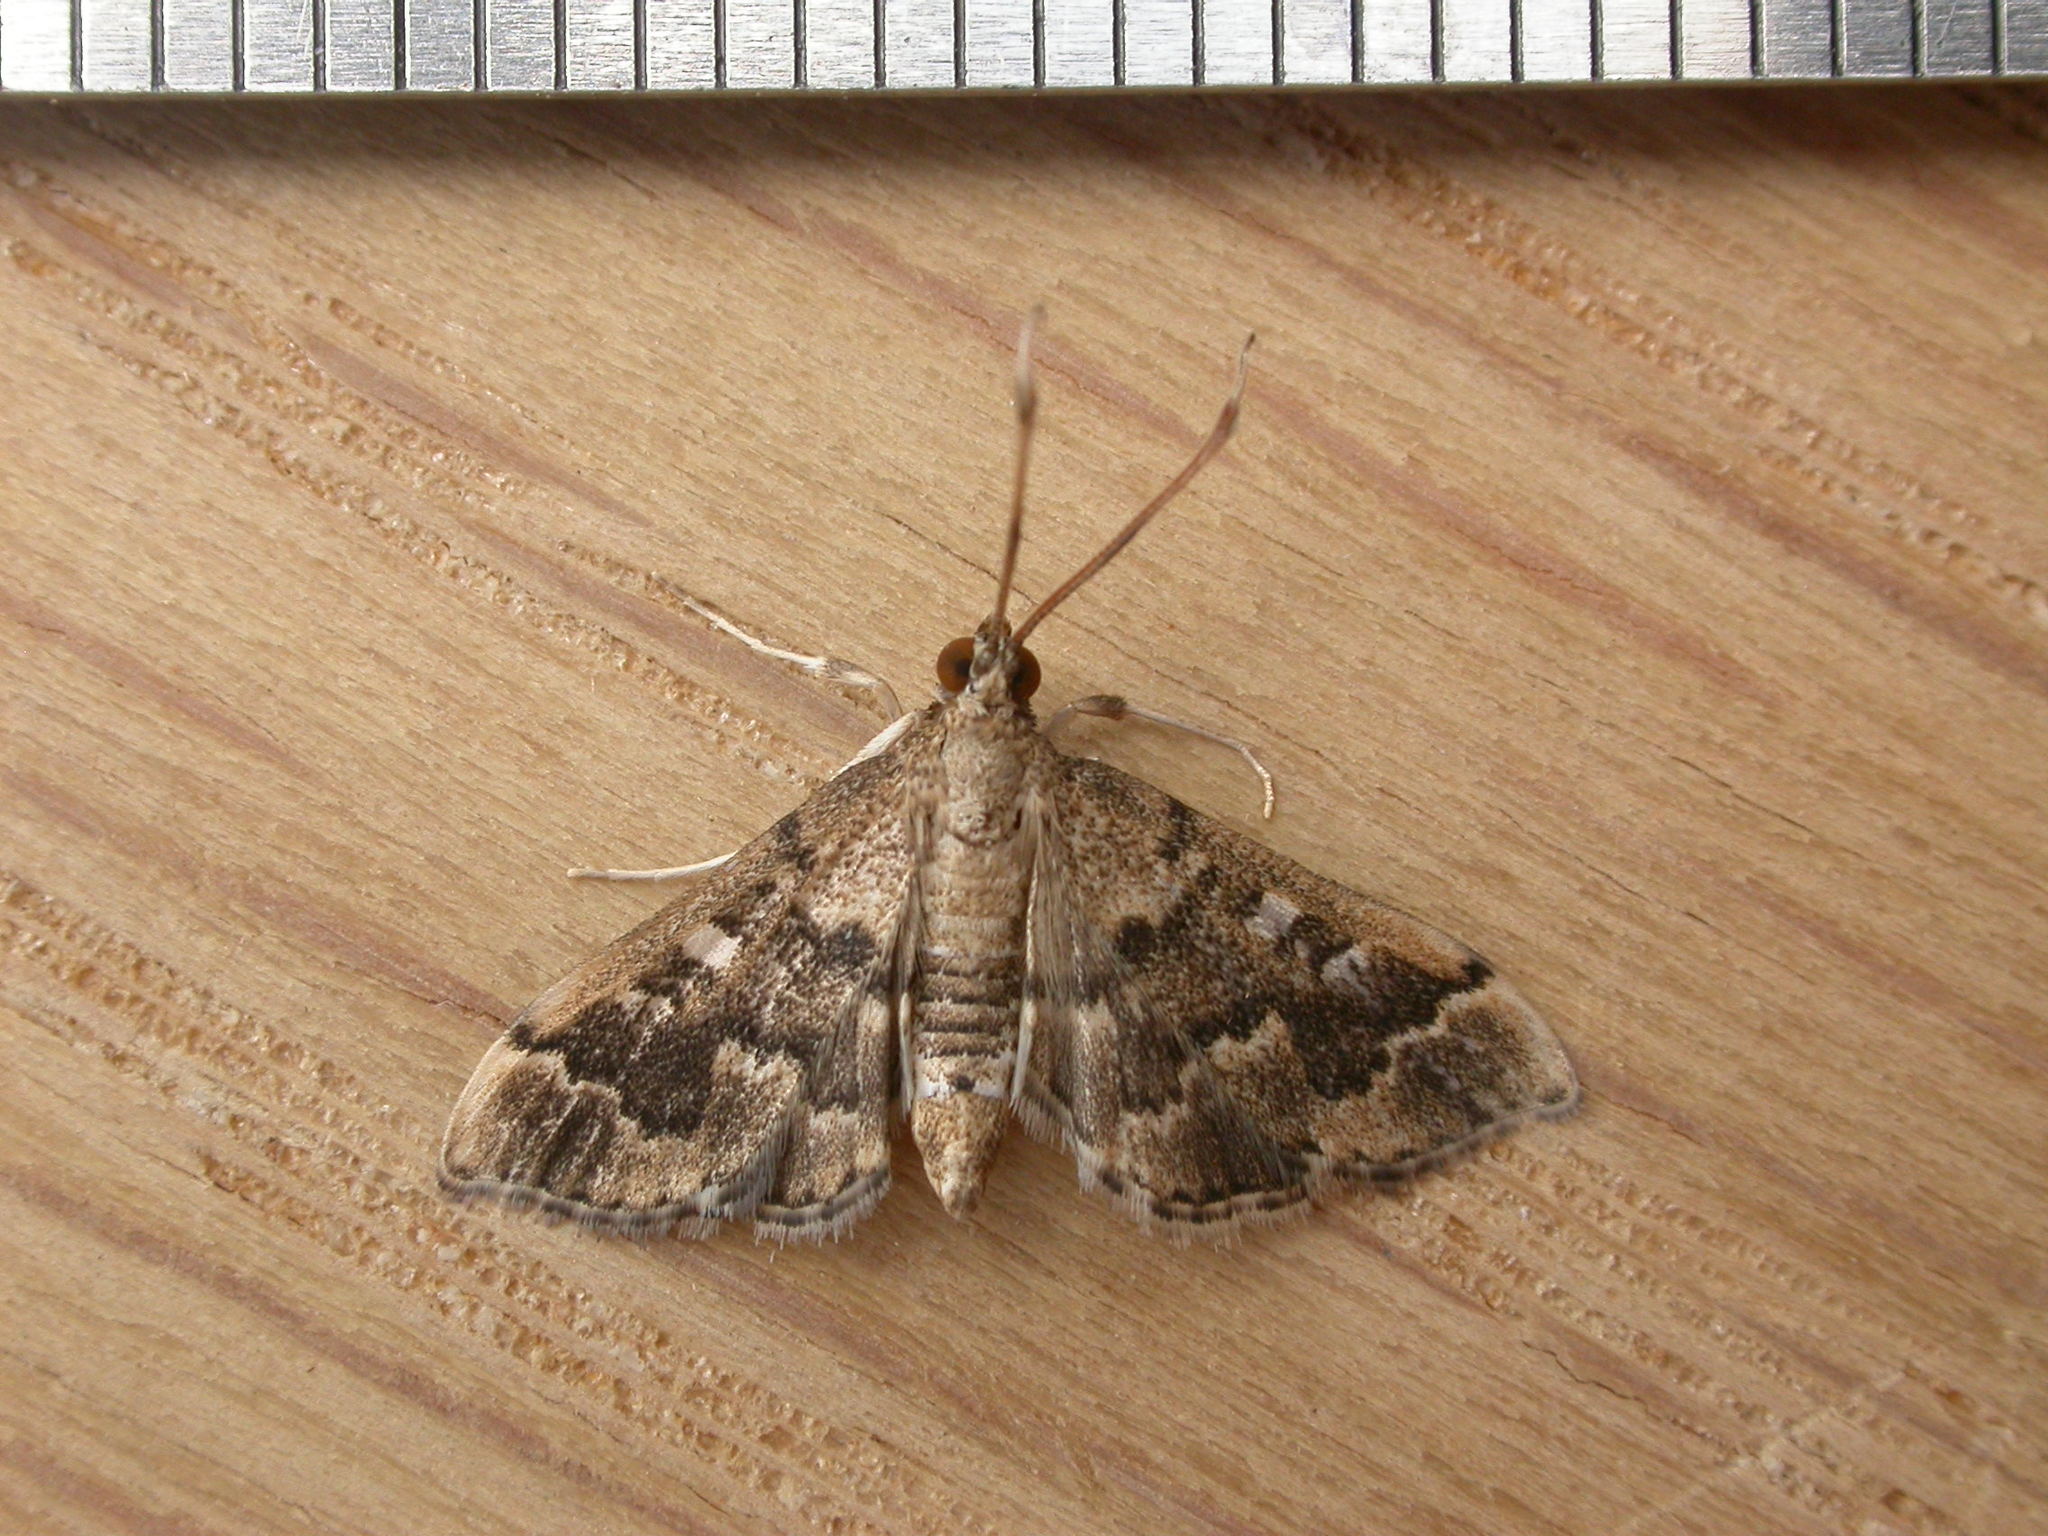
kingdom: Animalia
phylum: Arthropoda
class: Insecta
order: Lepidoptera
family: Crambidae
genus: Nacoleia
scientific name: Nacoleia rhoeoalis
